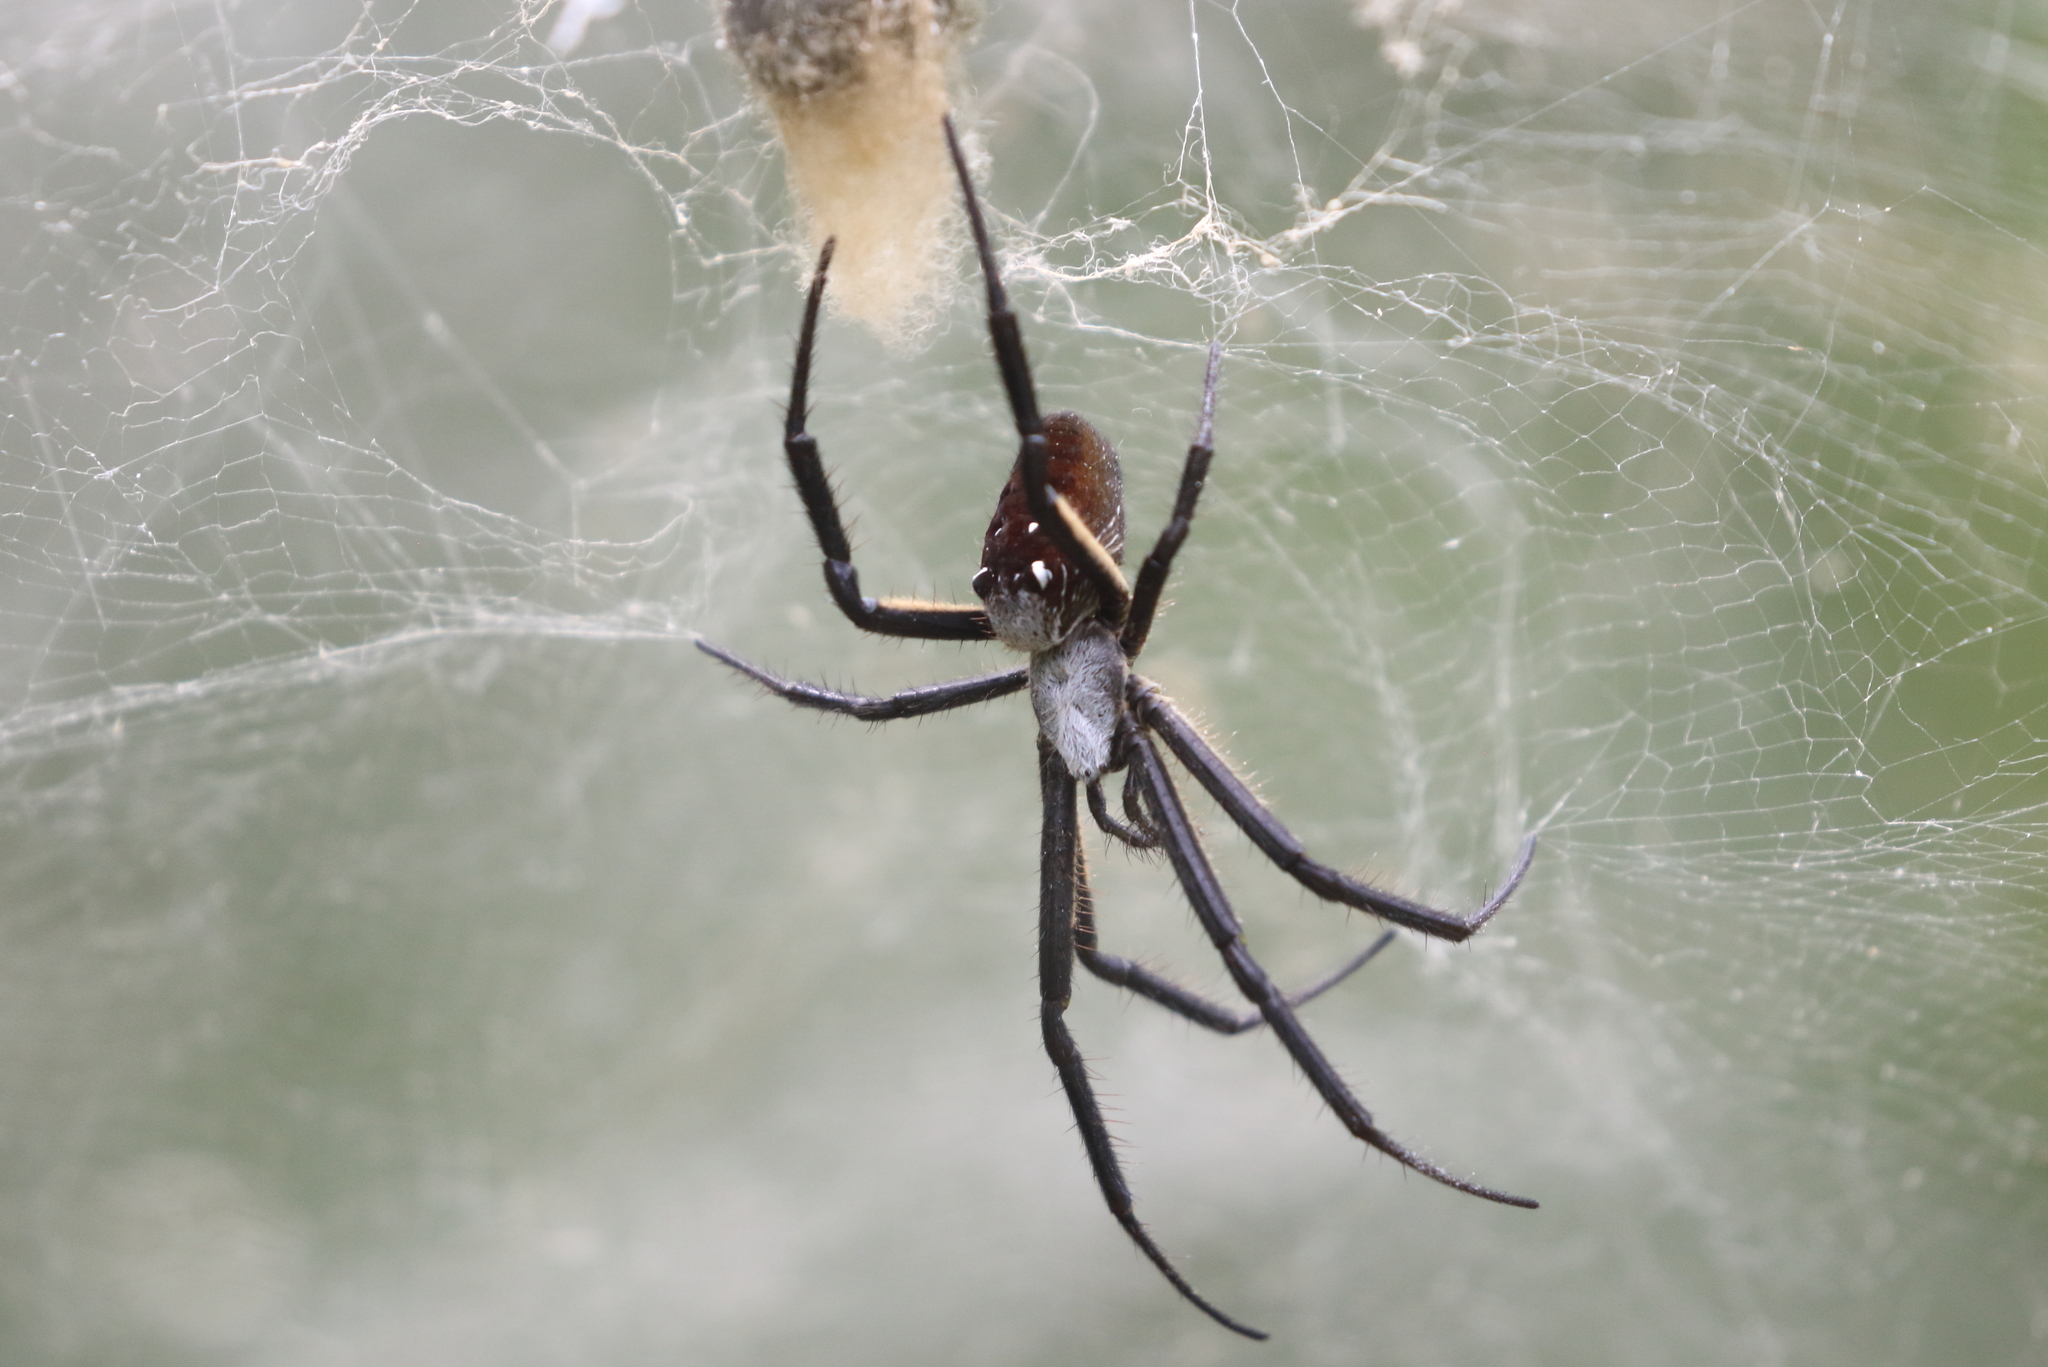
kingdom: Chromista
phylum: Ochrophyta
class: Dictyochophyceae
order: Pedinellales
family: Cyrtophoraceae
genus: Cyrtophora
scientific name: Cyrtophora moluccensis
